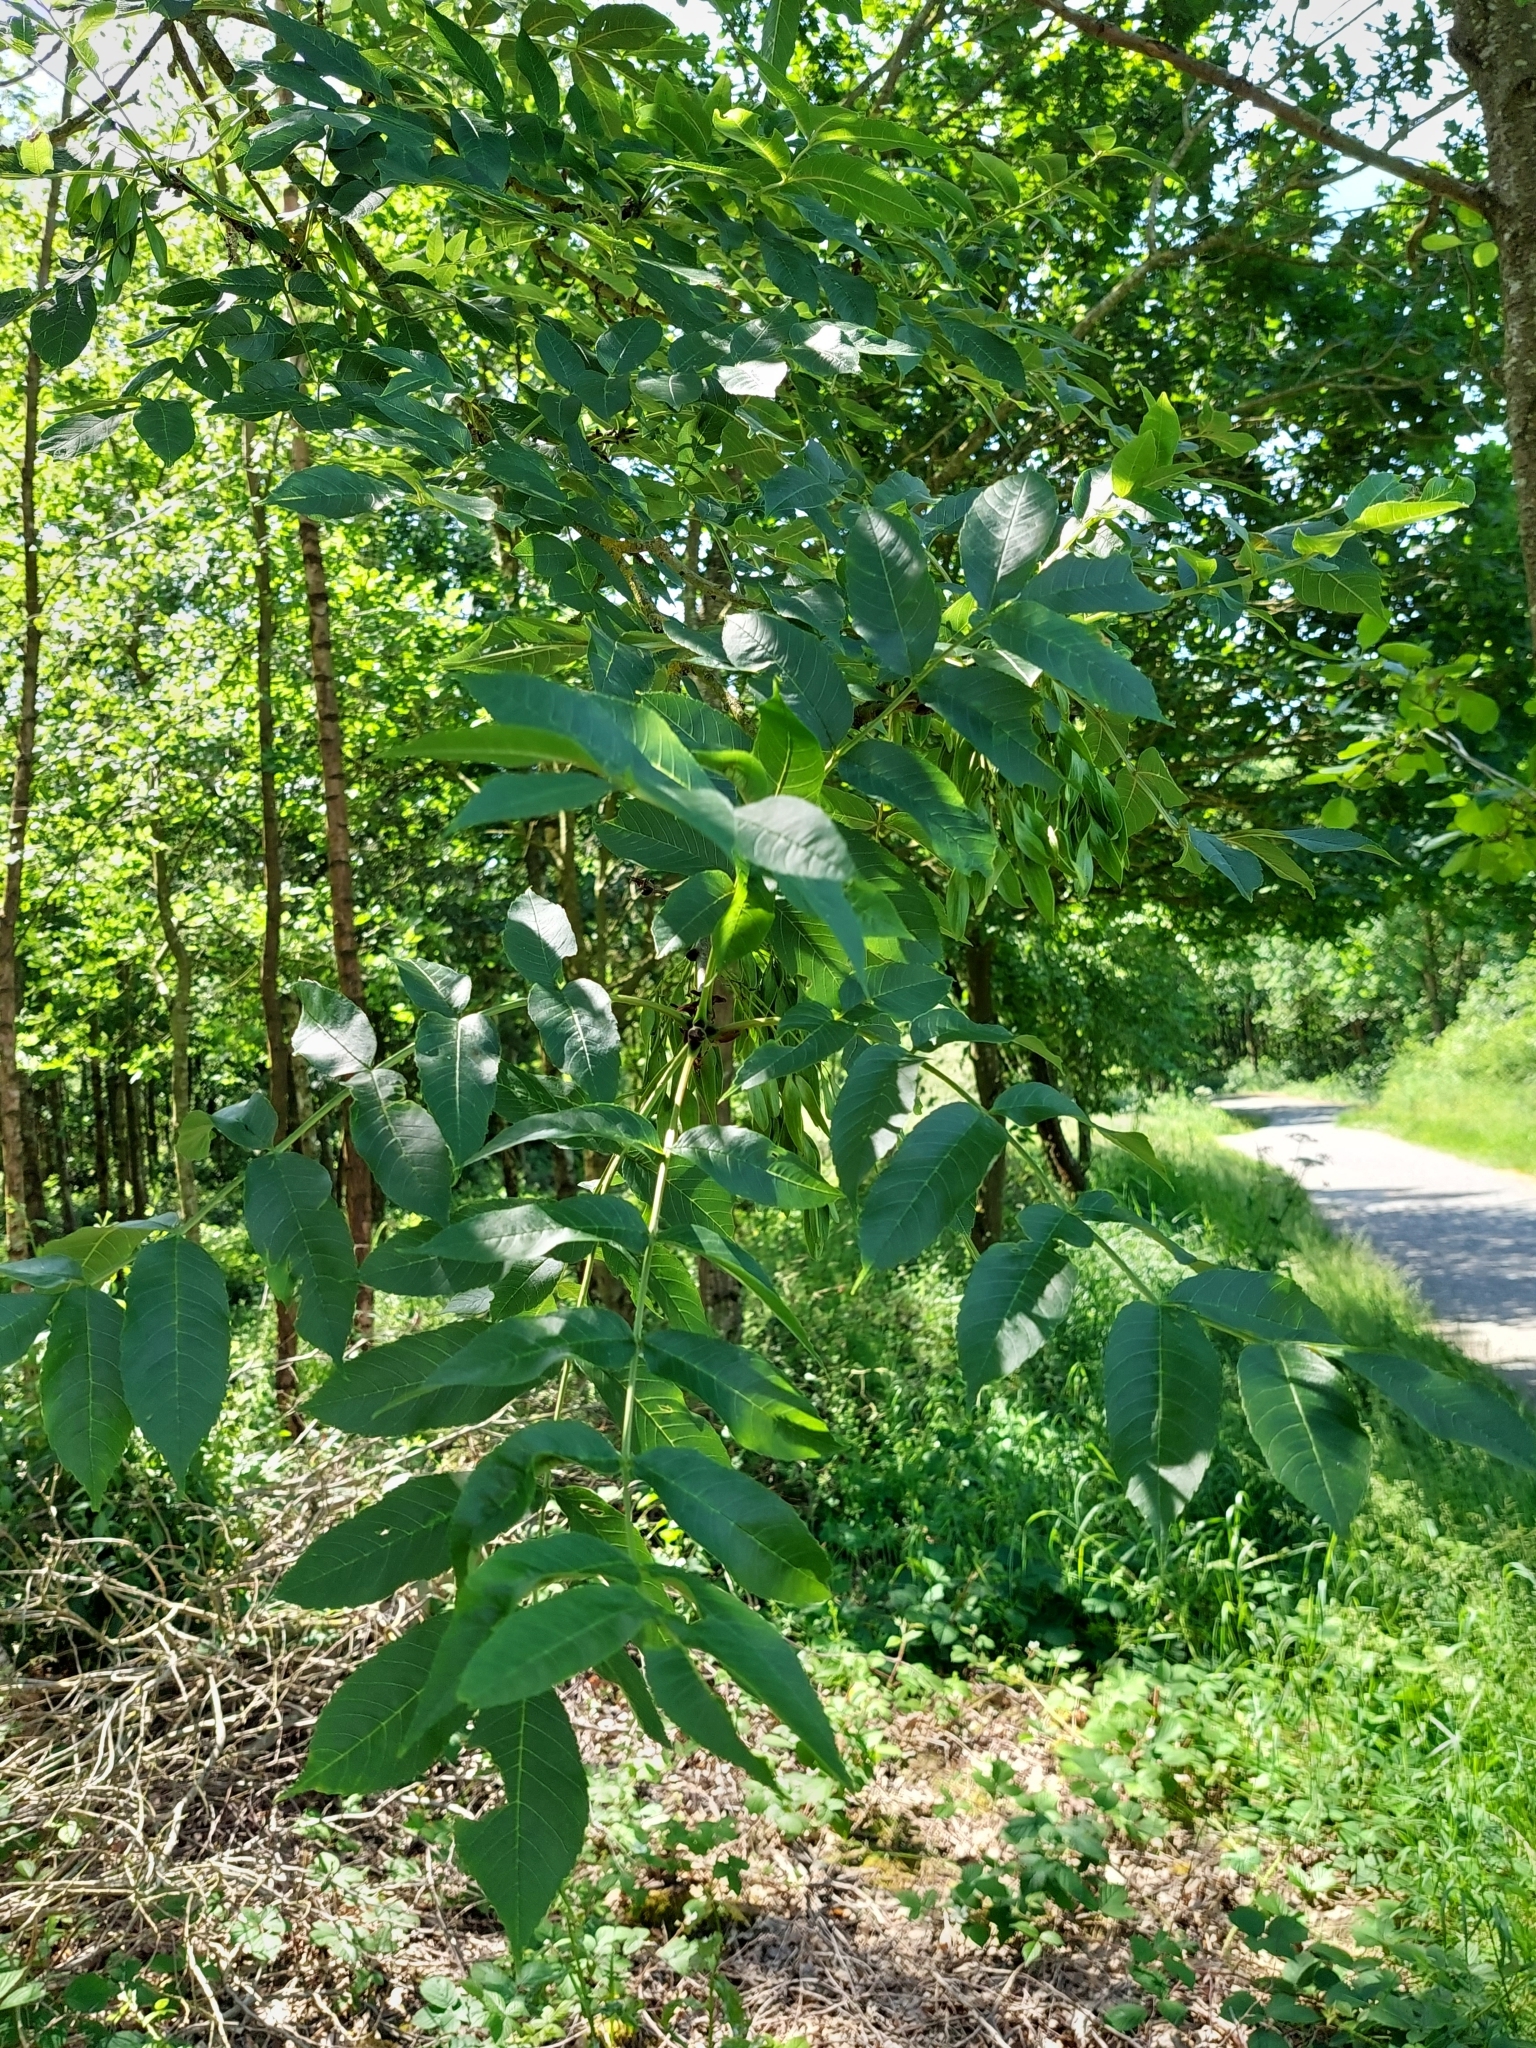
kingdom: Plantae
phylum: Tracheophyta
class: Magnoliopsida
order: Lamiales
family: Oleaceae
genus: Fraxinus
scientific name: Fraxinus excelsior
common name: European ash
